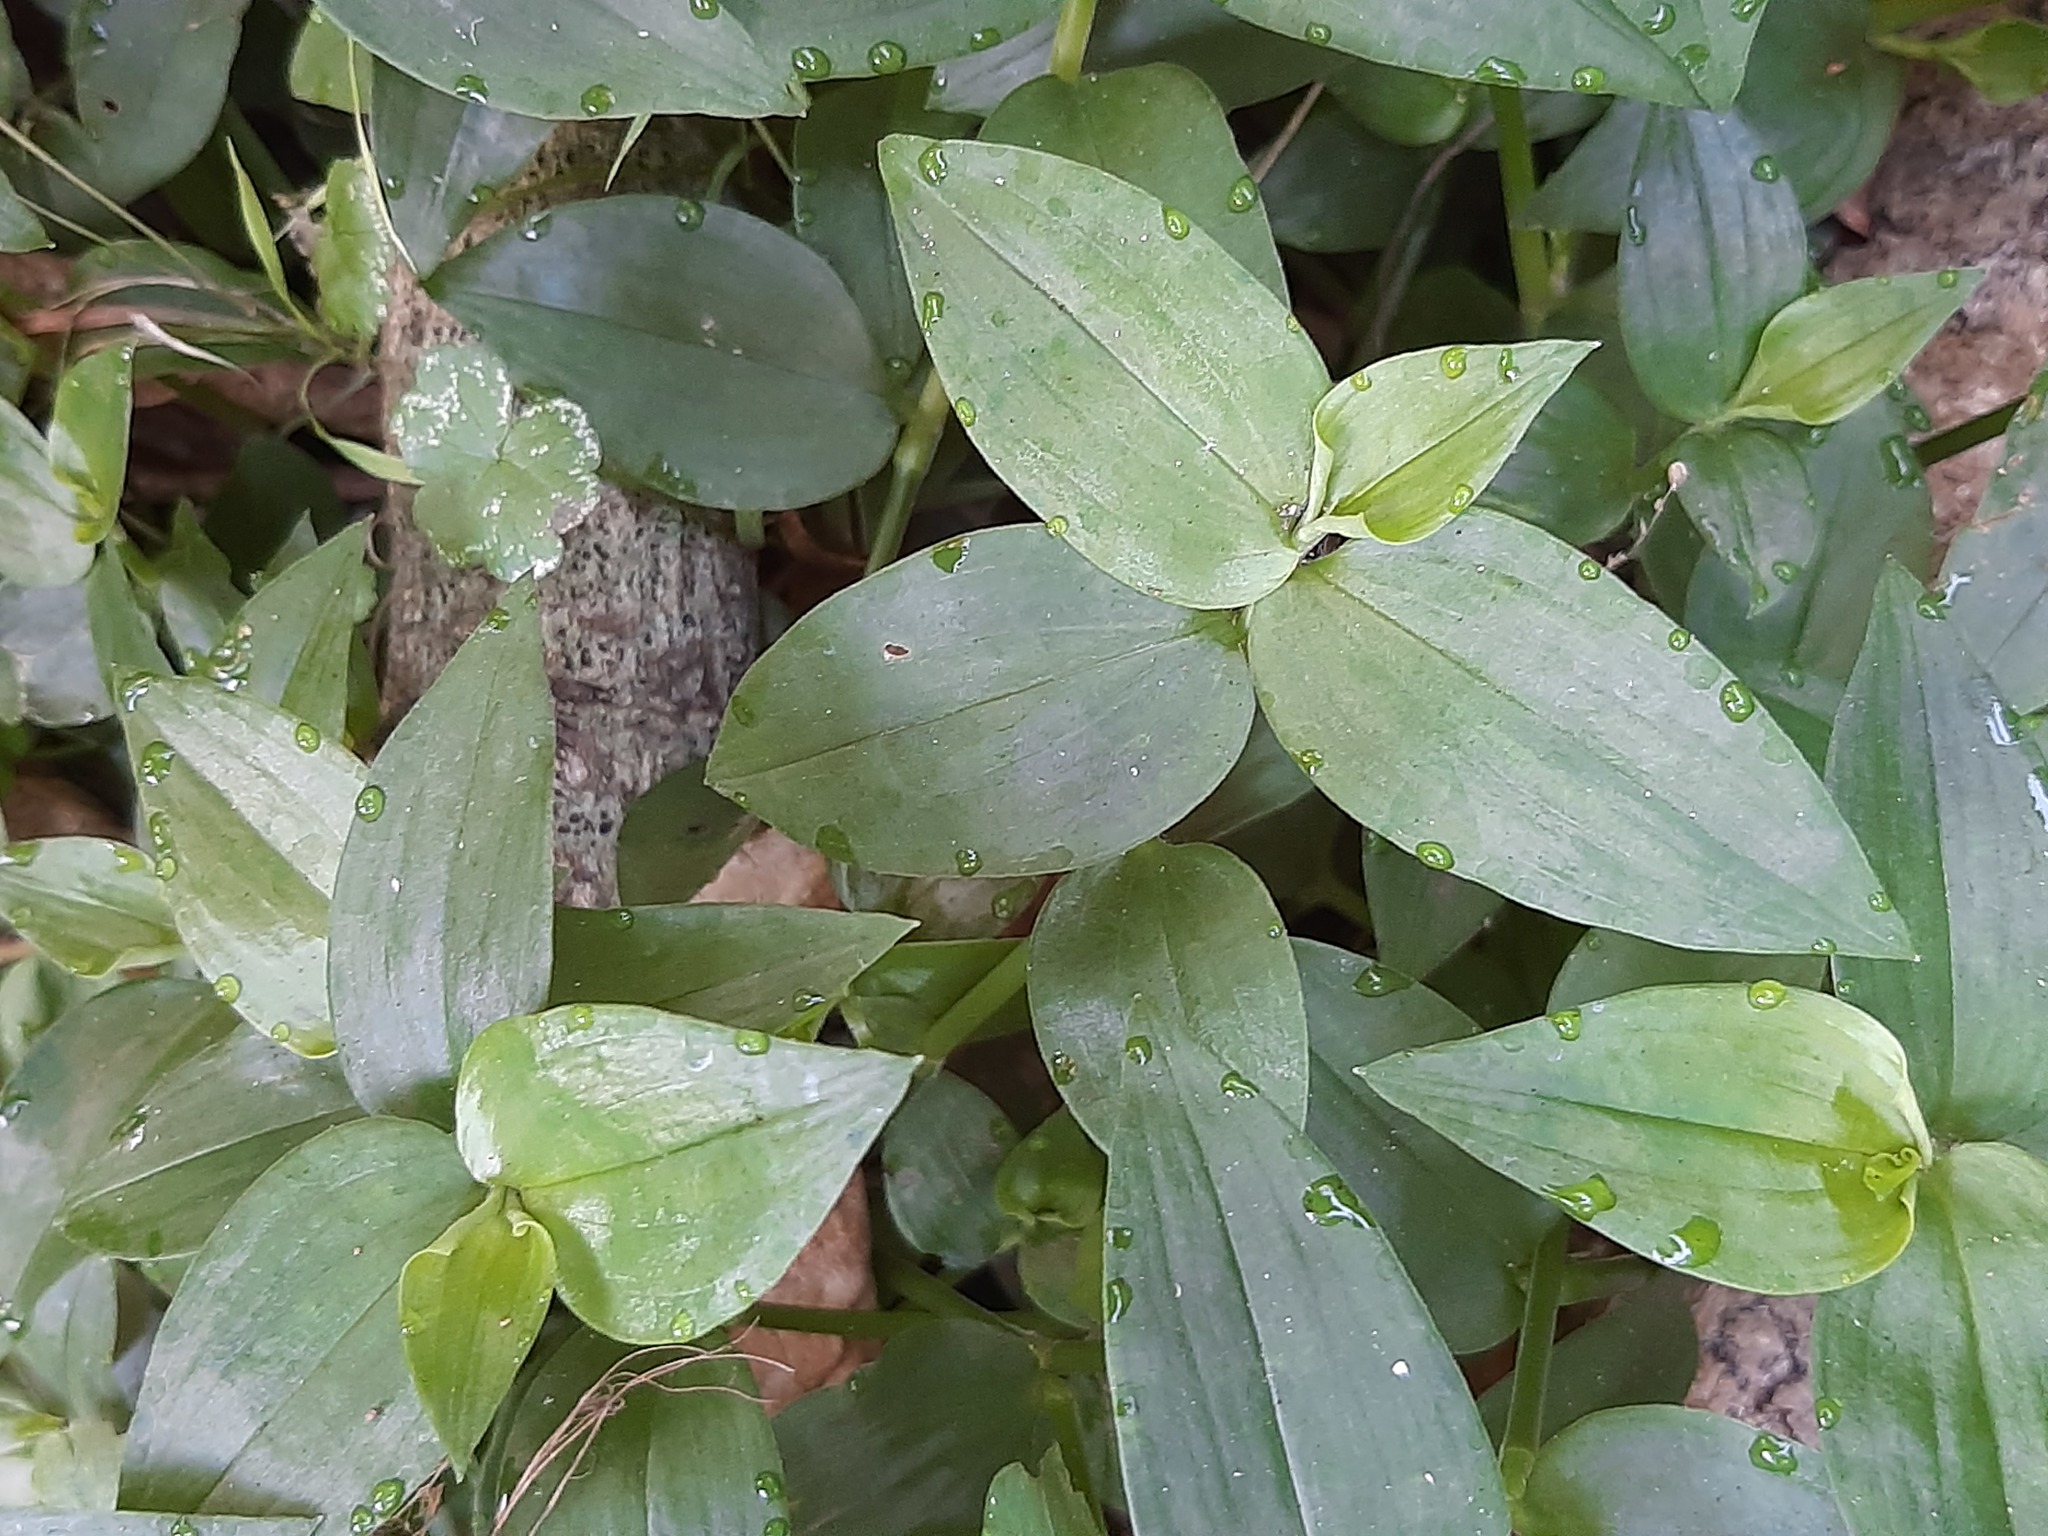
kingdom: Plantae
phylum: Tracheophyta
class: Liliopsida
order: Commelinales
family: Commelinaceae
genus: Tradescantia
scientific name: Tradescantia fluminensis
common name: Wandering-jew
